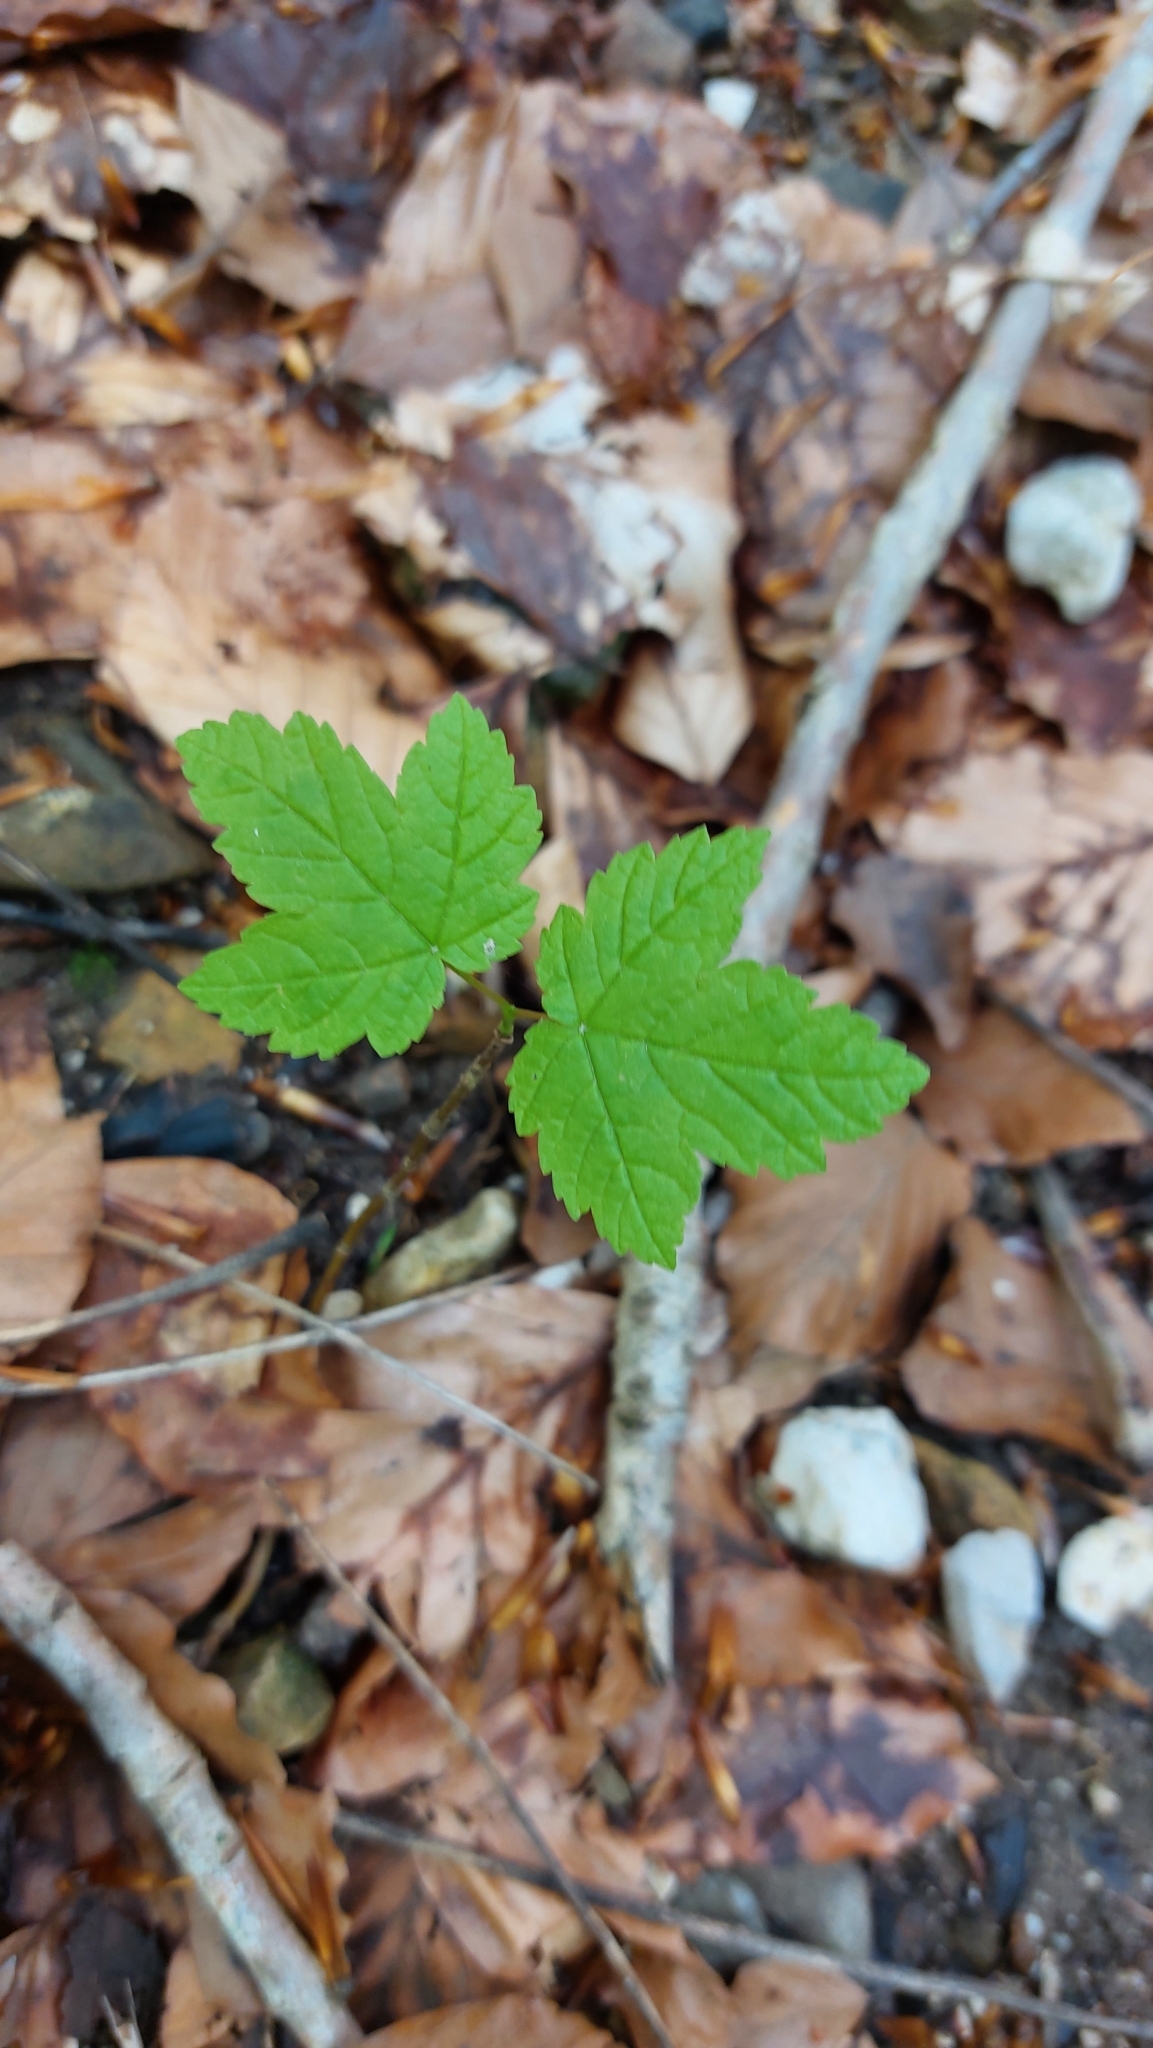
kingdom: Plantae
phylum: Tracheophyta
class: Magnoliopsida
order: Sapindales
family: Sapindaceae
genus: Acer
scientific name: Acer pseudoplatanus
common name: Sycamore
